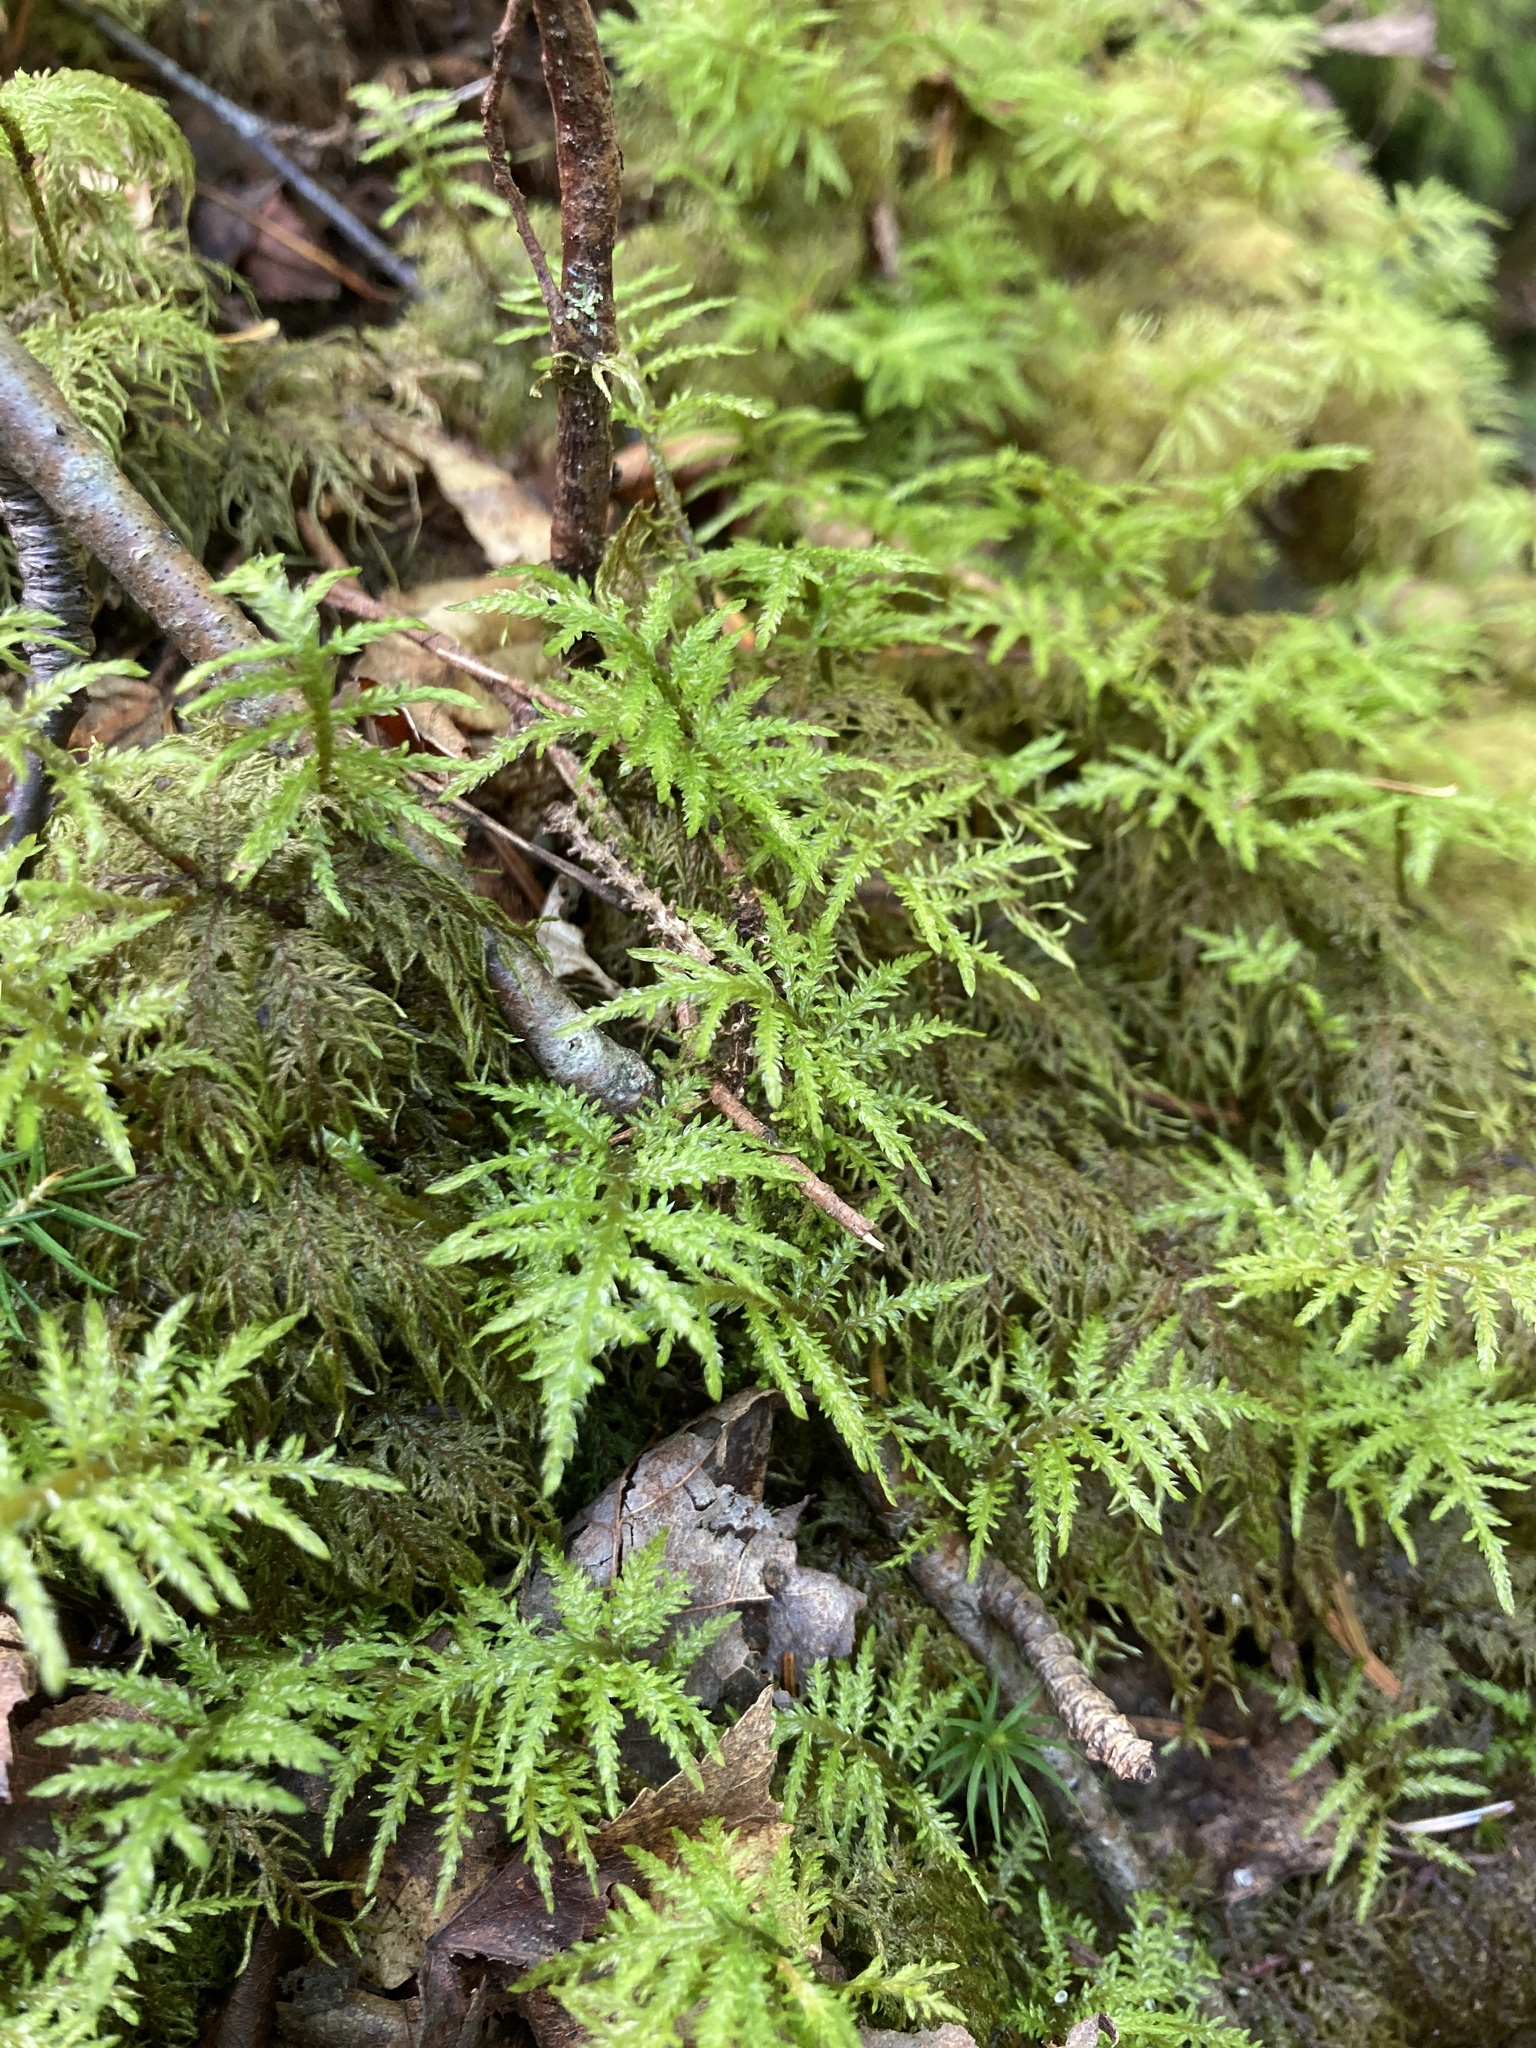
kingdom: Plantae
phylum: Bryophyta
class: Bryopsida
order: Hypnales
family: Hylocomiaceae
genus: Hylocomium
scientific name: Hylocomium splendens
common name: Stairstep moss
